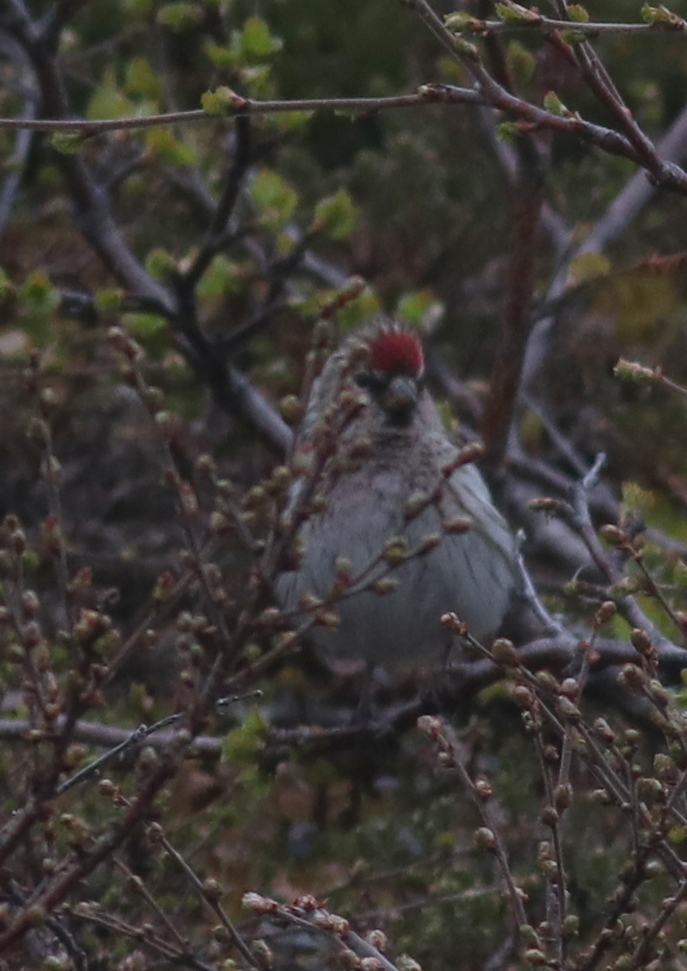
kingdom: Animalia
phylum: Chordata
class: Aves
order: Passeriformes
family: Fringillidae
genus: Acanthis
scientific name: Acanthis flammea
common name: Common redpoll
